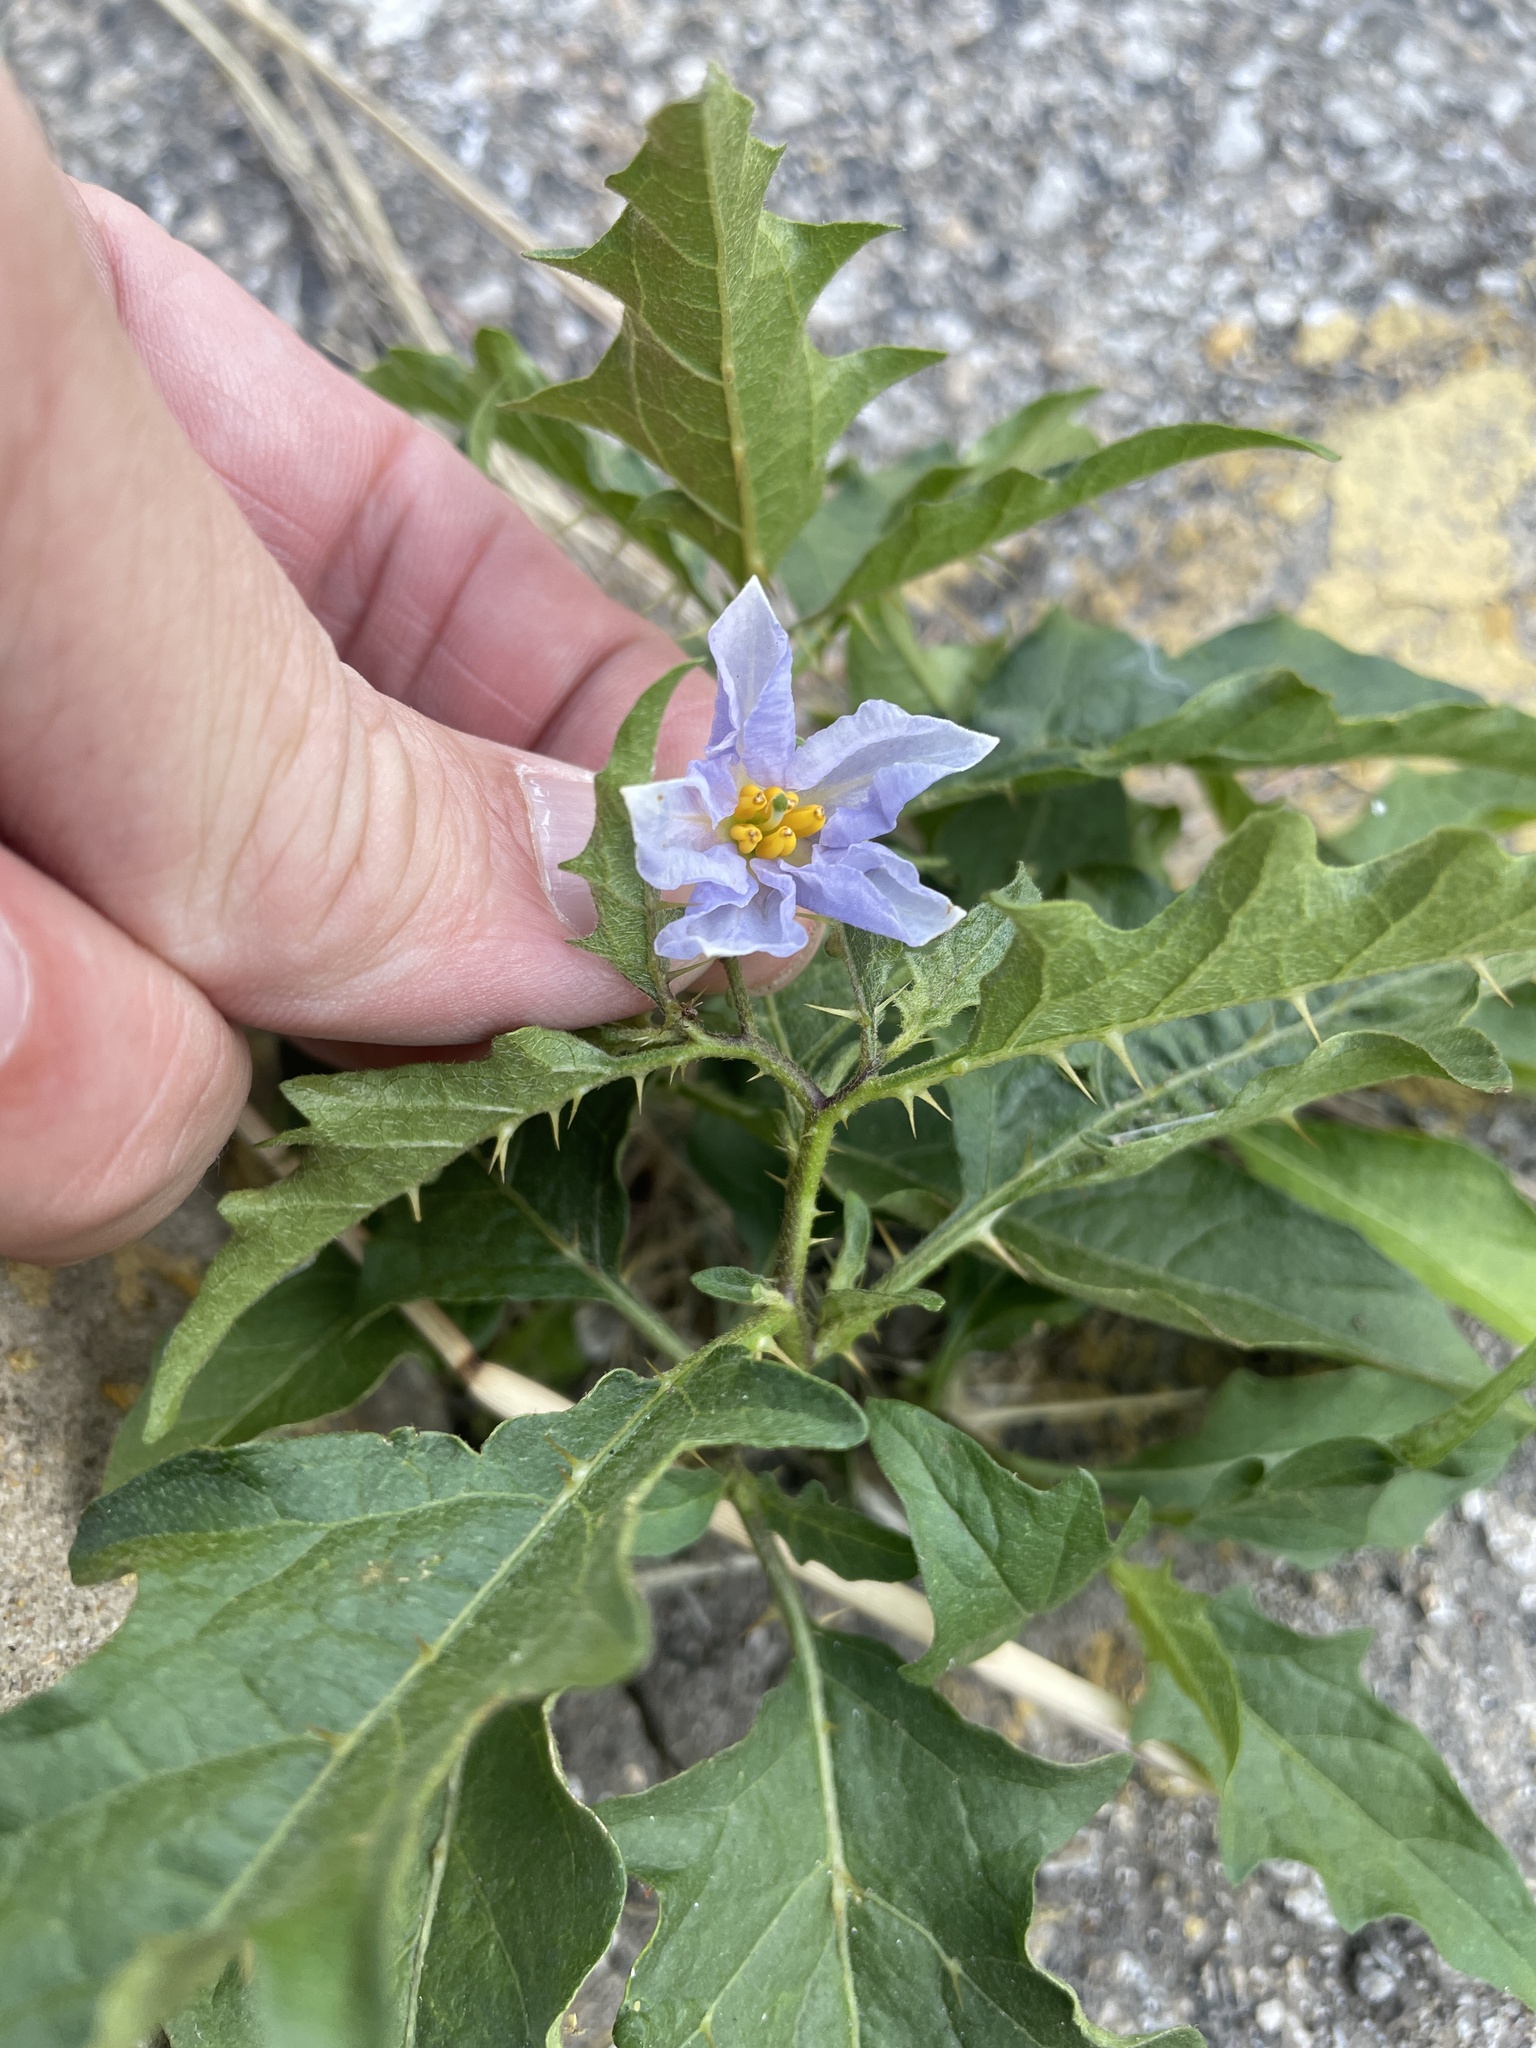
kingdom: Plantae
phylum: Tracheophyta
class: Magnoliopsida
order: Solanales
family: Solanaceae
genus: Solanum
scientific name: Solanum carolinense
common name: Horse-nettle
